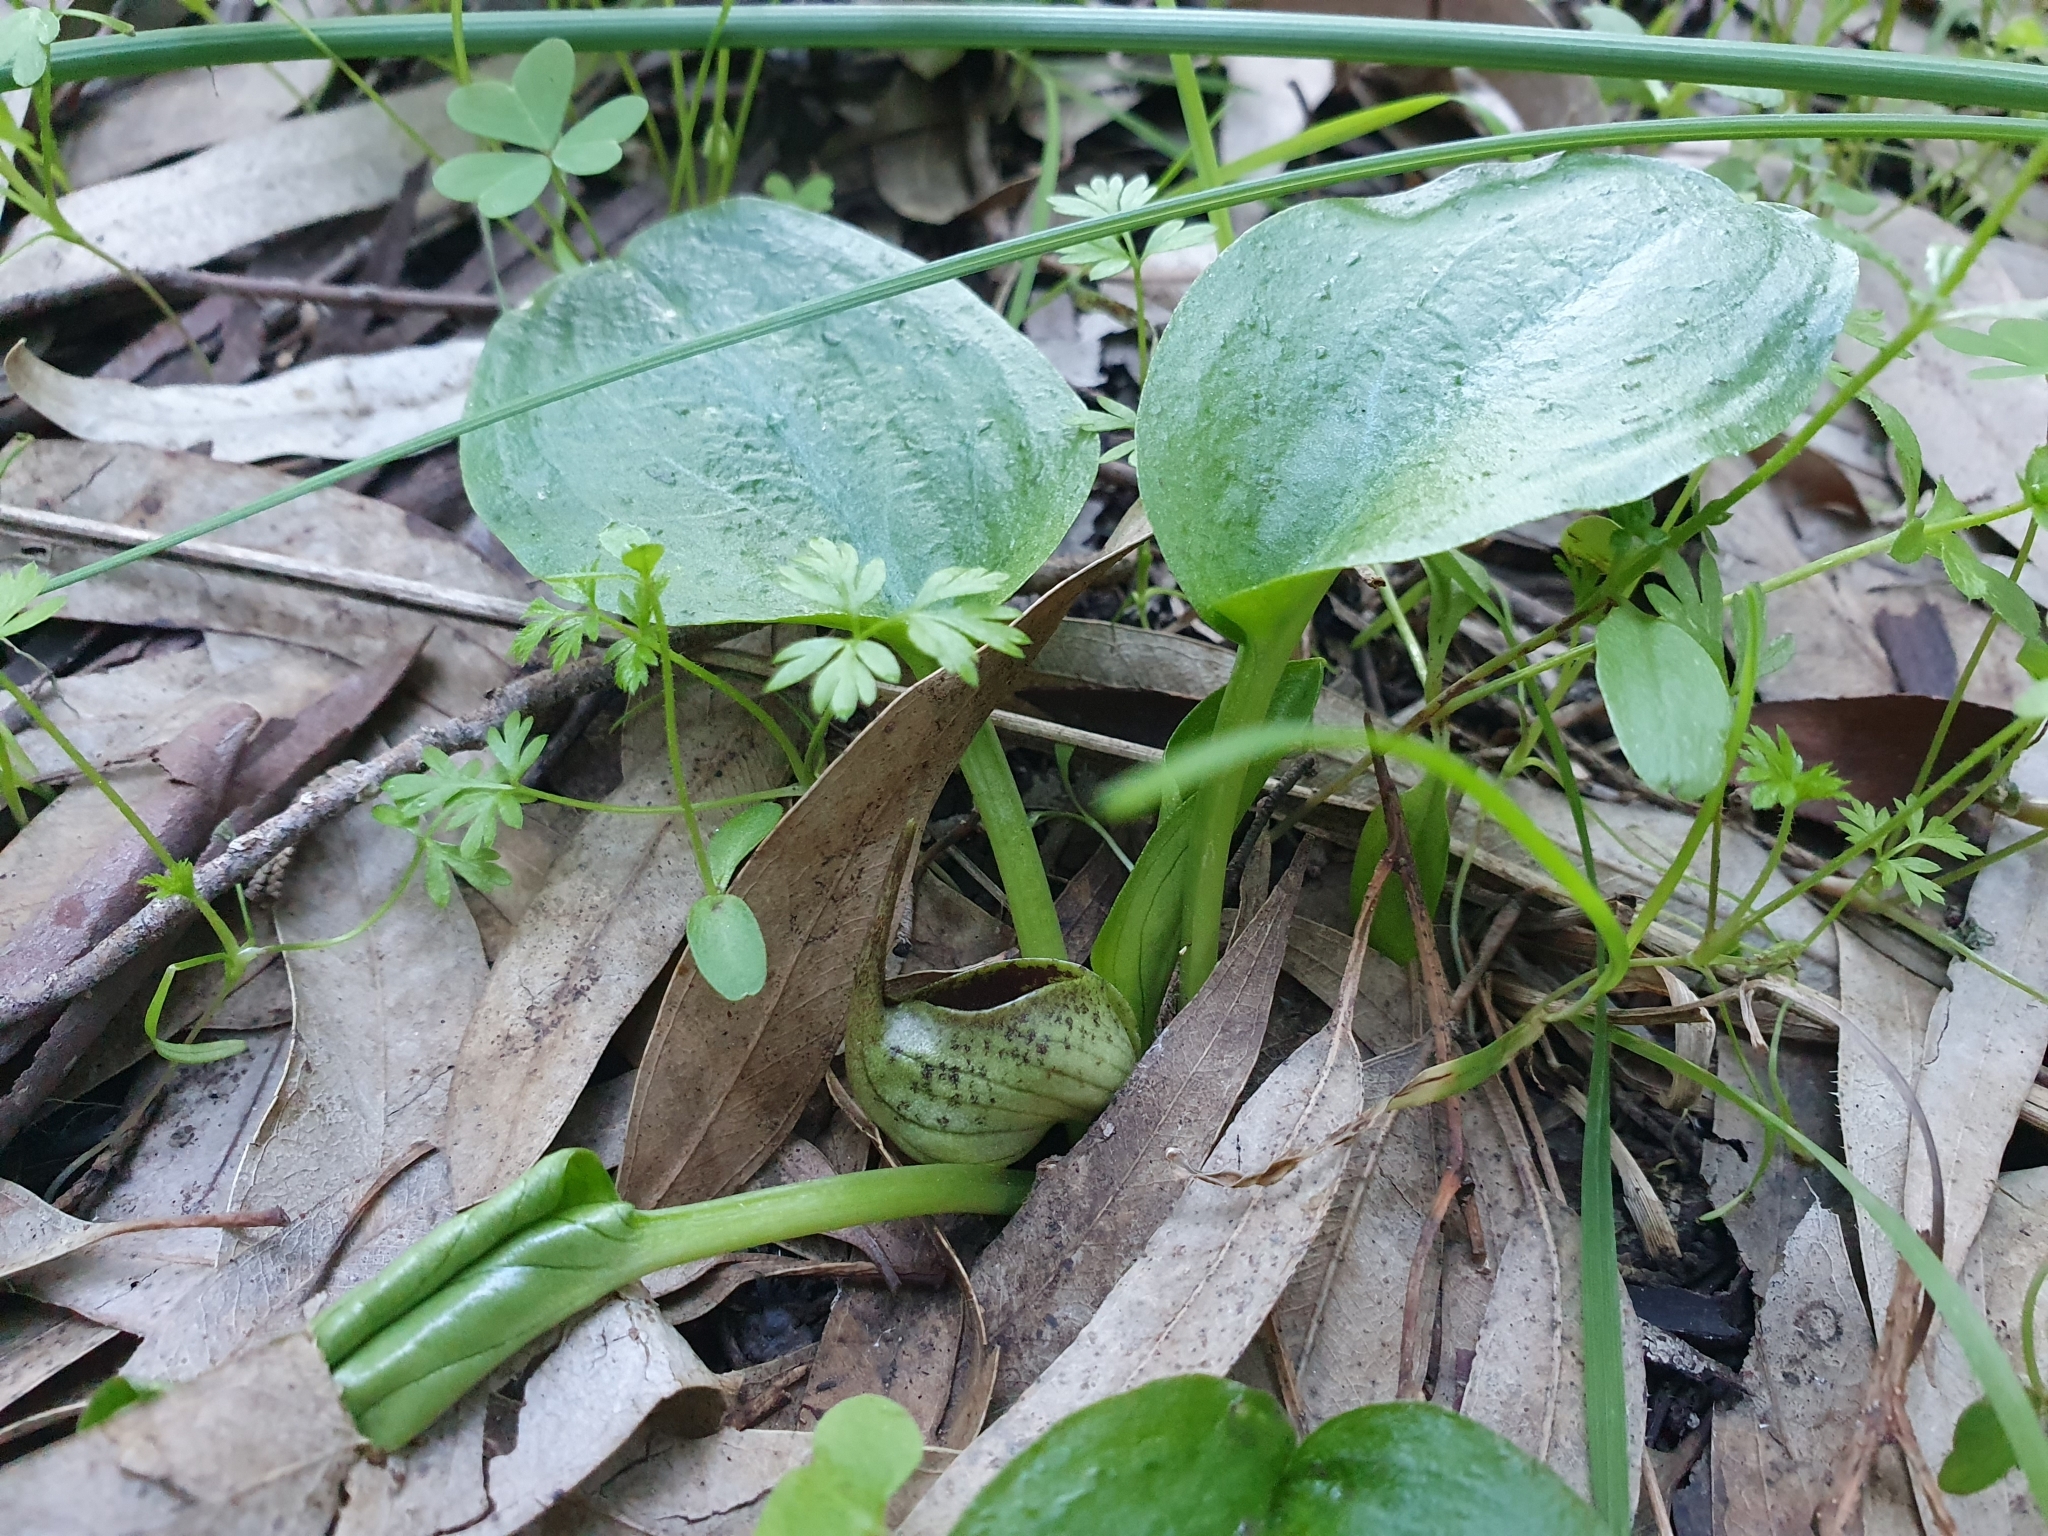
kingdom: Plantae
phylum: Tracheophyta
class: Liliopsida
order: Alismatales
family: Araceae
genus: Ambrosina
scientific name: Ambrosina bassii
